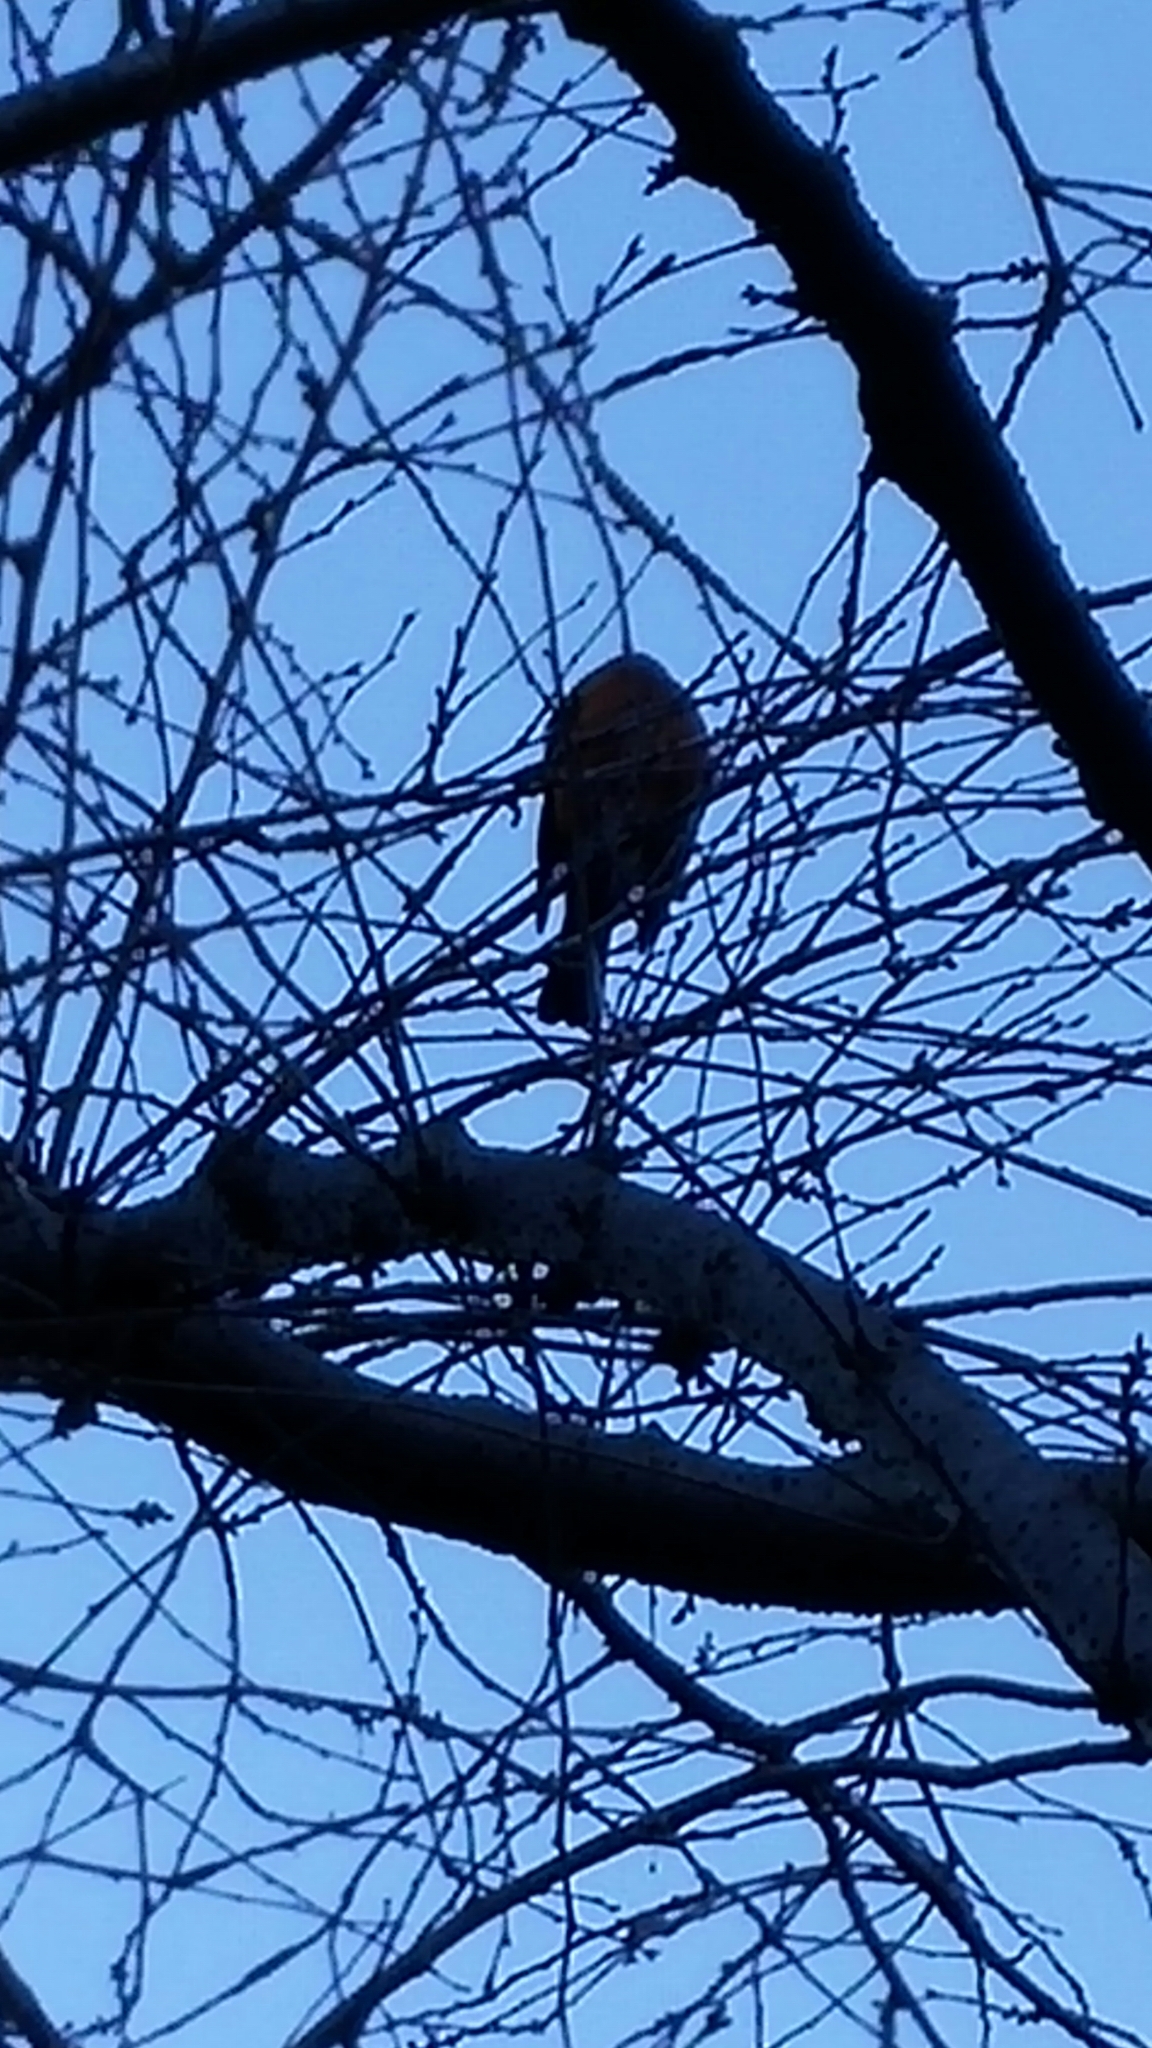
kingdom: Animalia
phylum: Chordata
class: Aves
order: Passeriformes
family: Turdidae
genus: Turdus
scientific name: Turdus migratorius
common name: American robin
